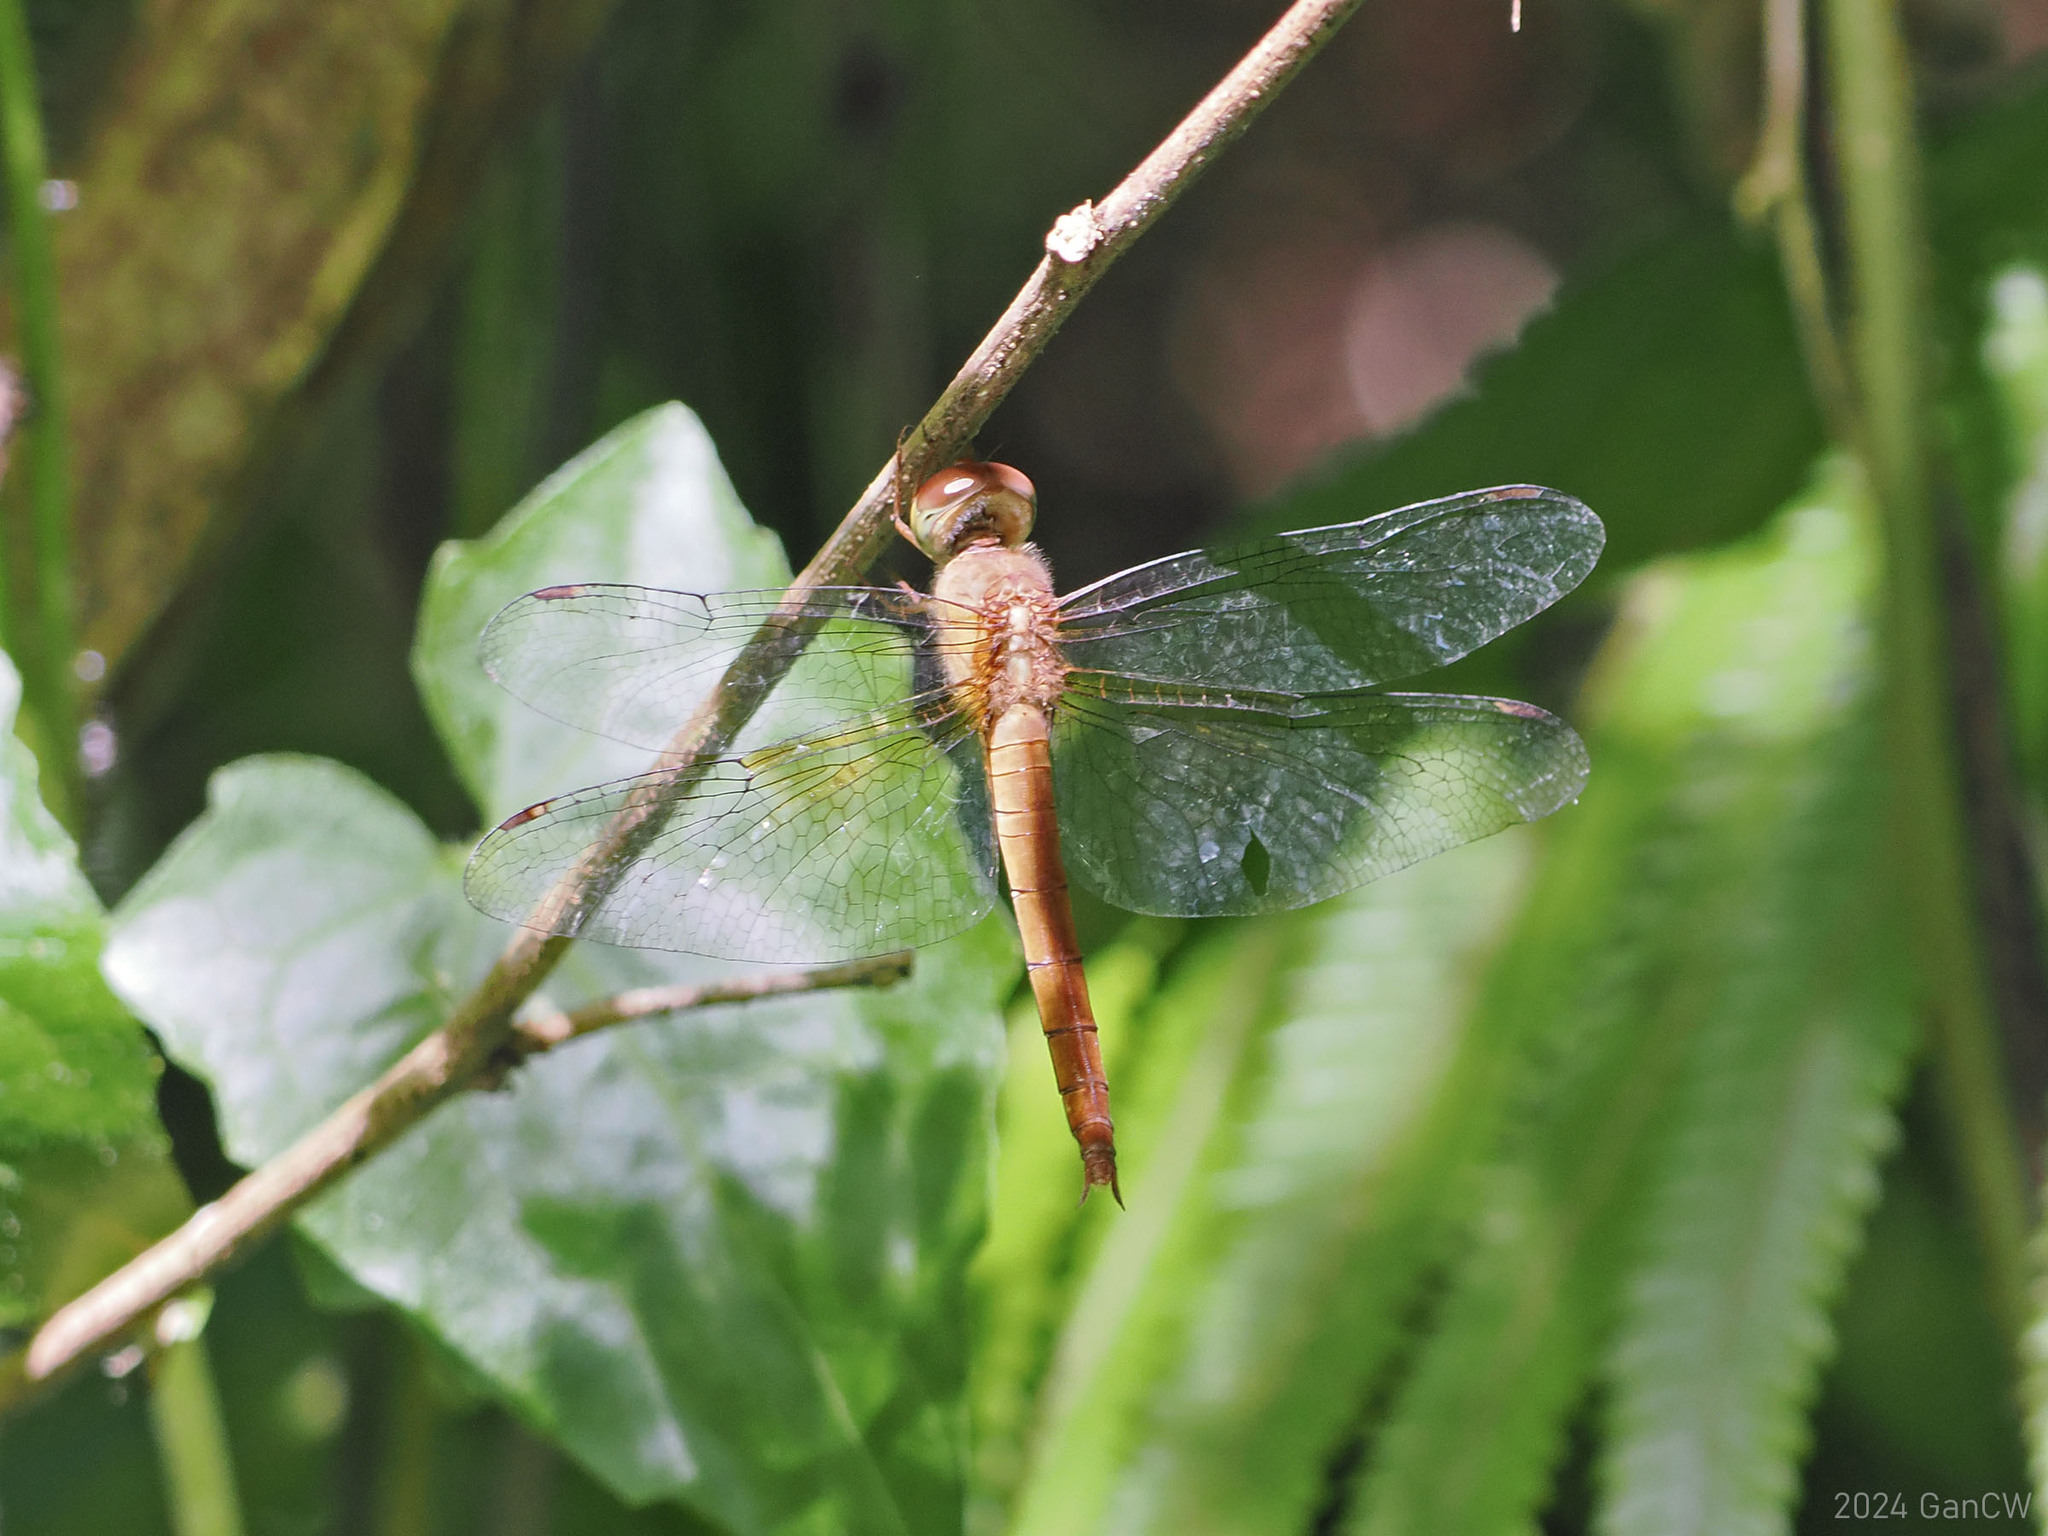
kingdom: Animalia
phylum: Arthropoda
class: Insecta
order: Odonata
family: Libellulidae
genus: Tholymis
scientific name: Tholymis tillarga
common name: Coral-tailed cloud wing
